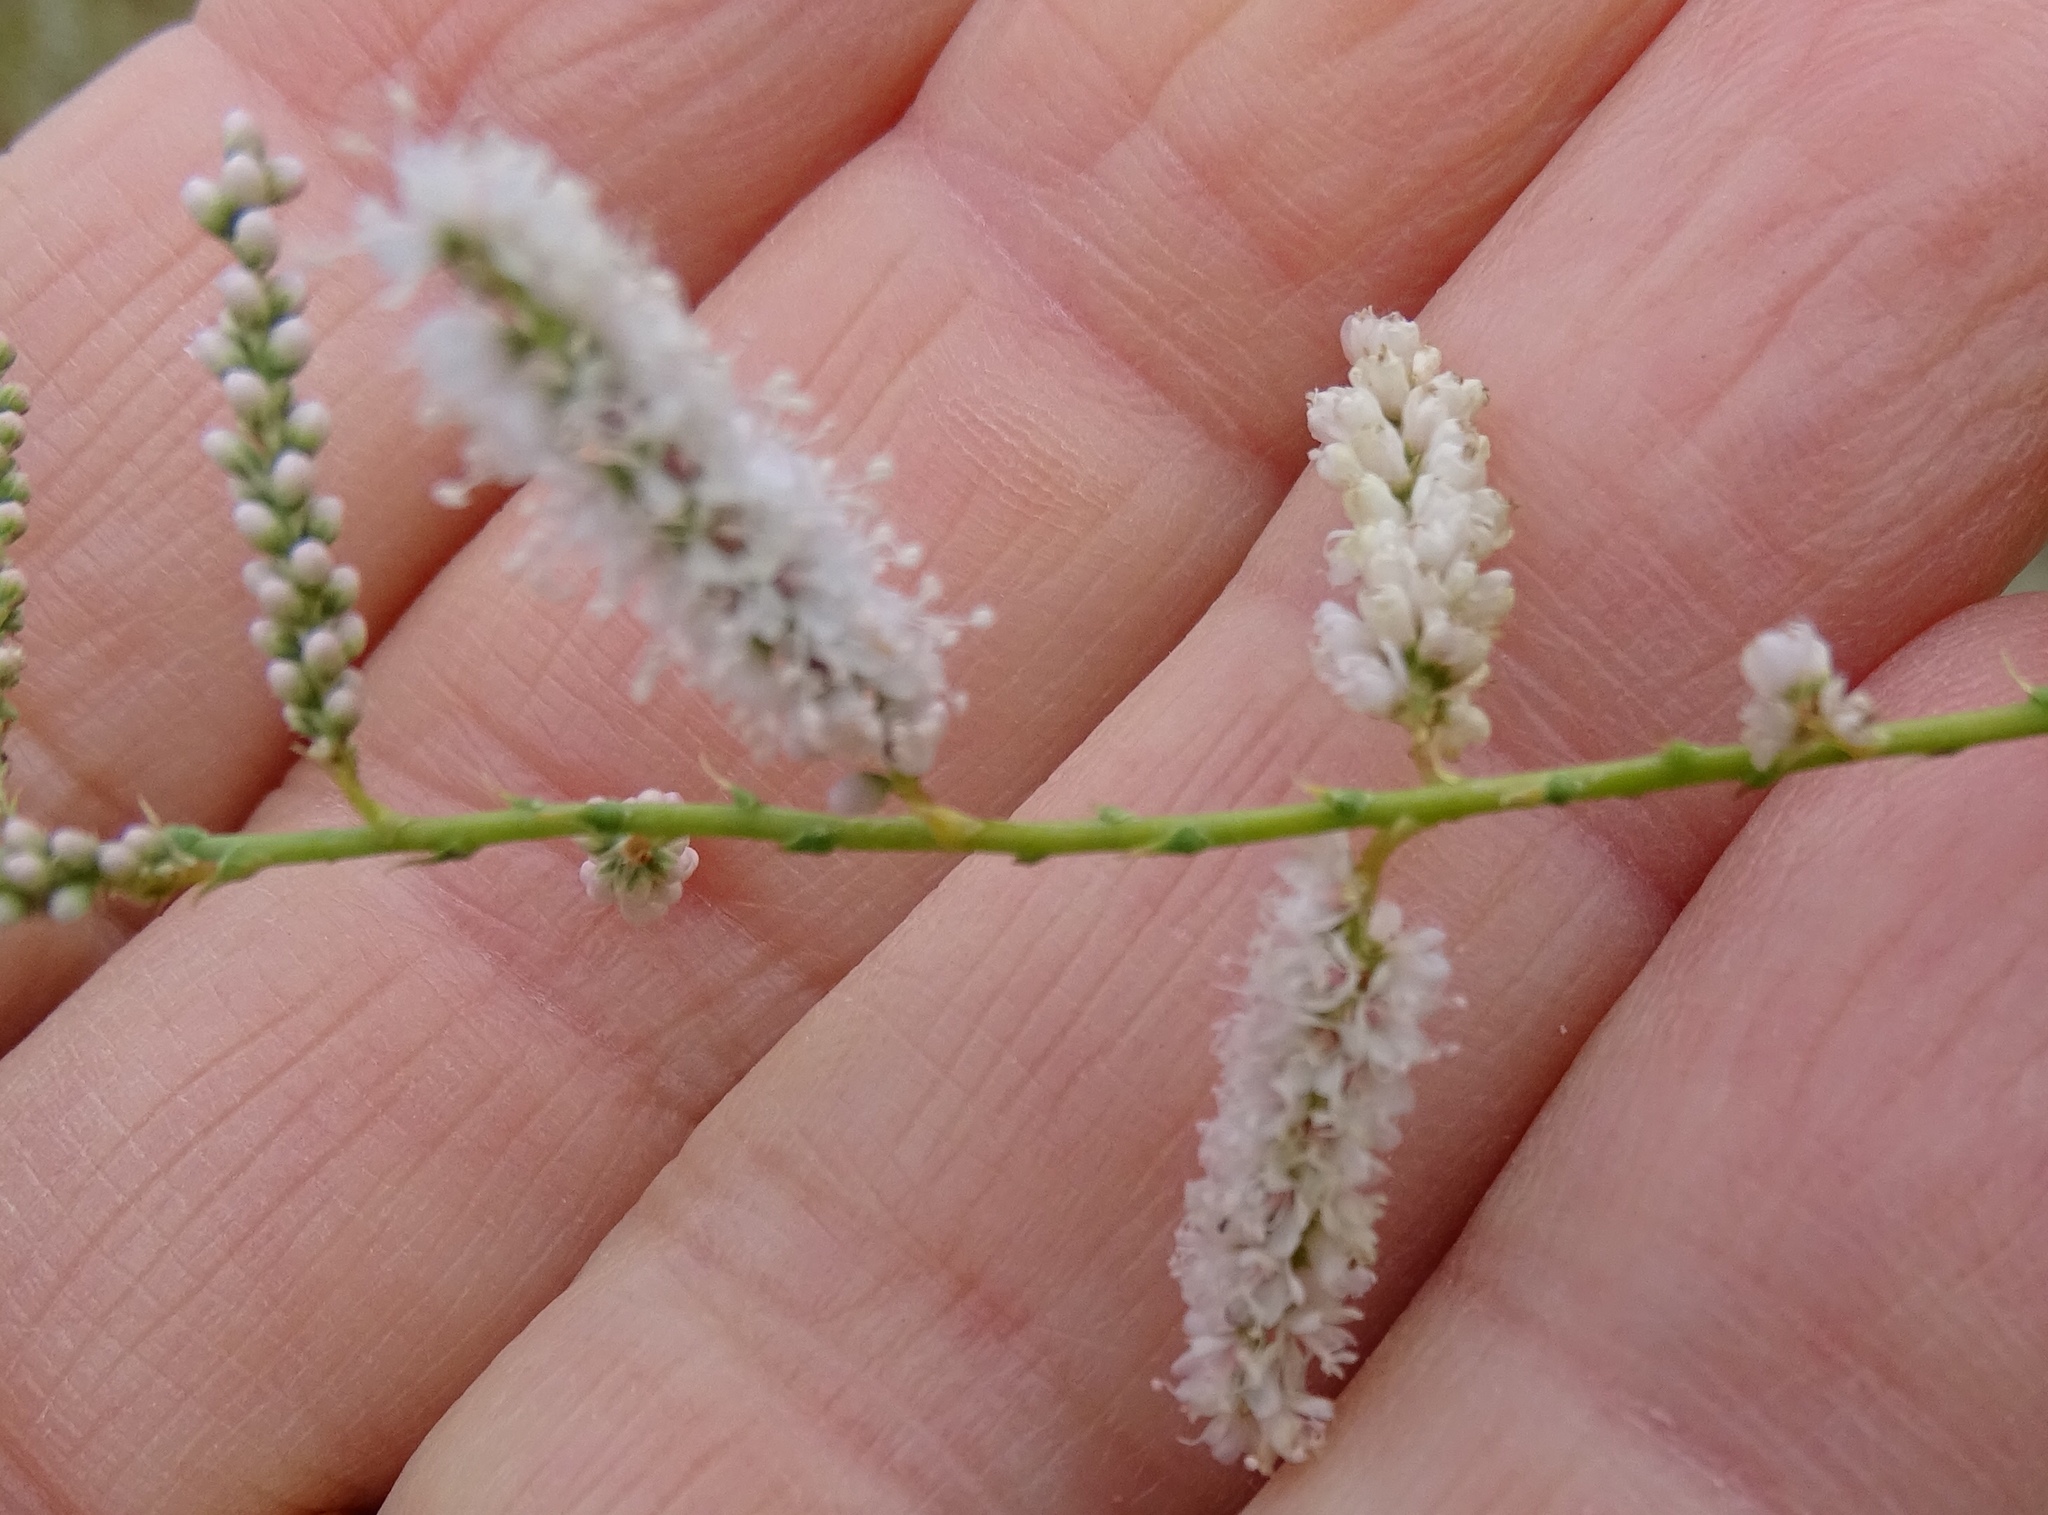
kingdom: Plantae
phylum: Tracheophyta
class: Magnoliopsida
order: Caryophyllales
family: Tamaricaceae
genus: Tamarix
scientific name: Tamarix
